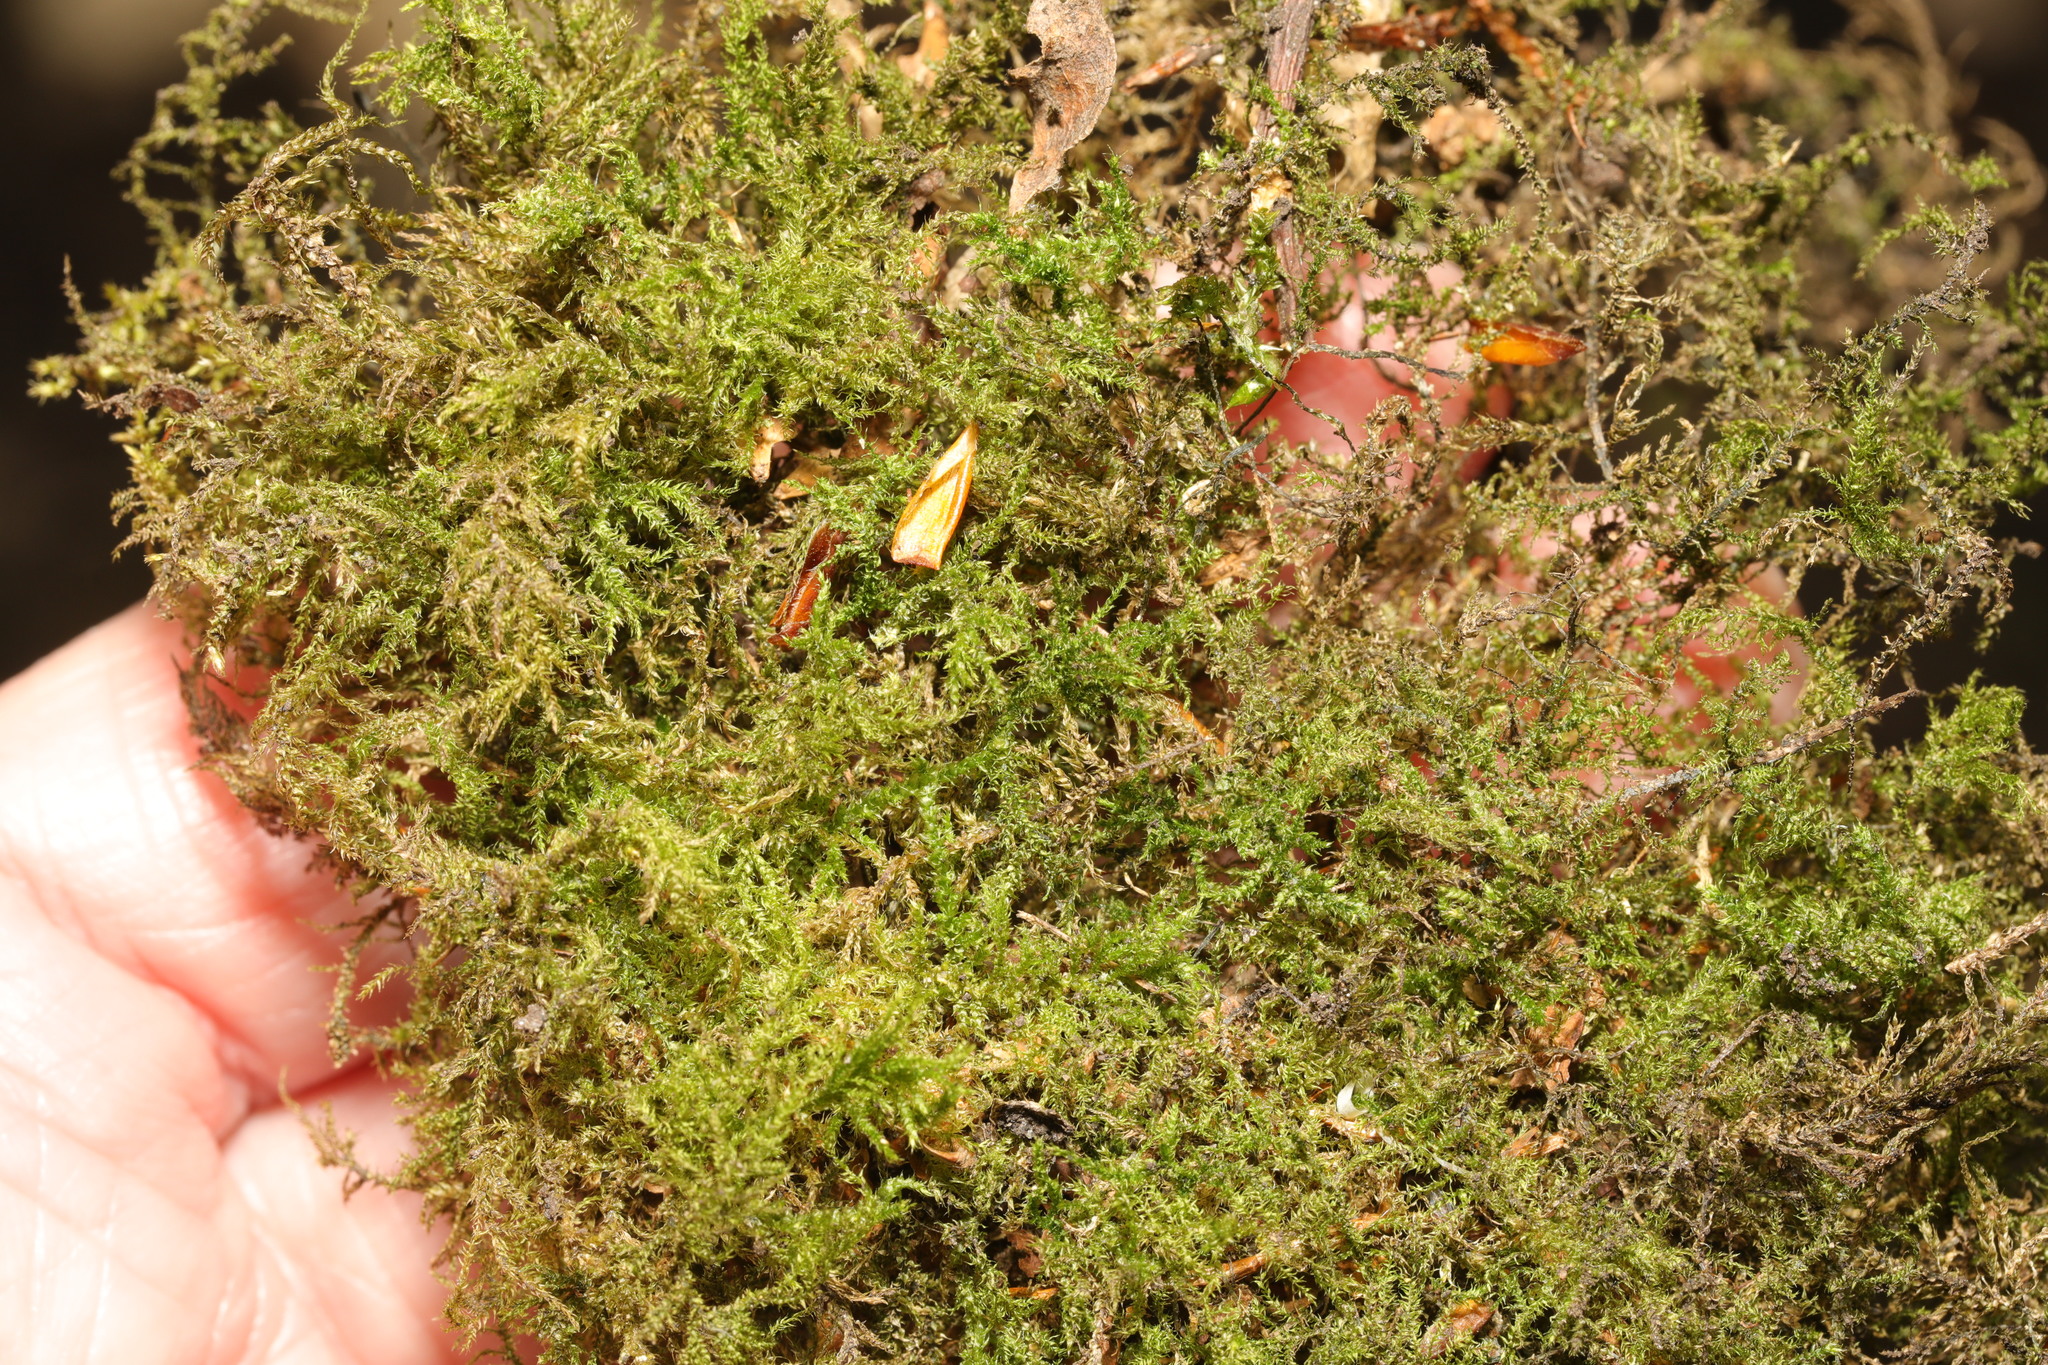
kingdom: Plantae
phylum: Bryophyta
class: Bryopsida
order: Hypnales
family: Brachytheciaceae
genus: Oxyrrhynchium
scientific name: Oxyrrhynchium hians
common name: Spreading beaked moss
